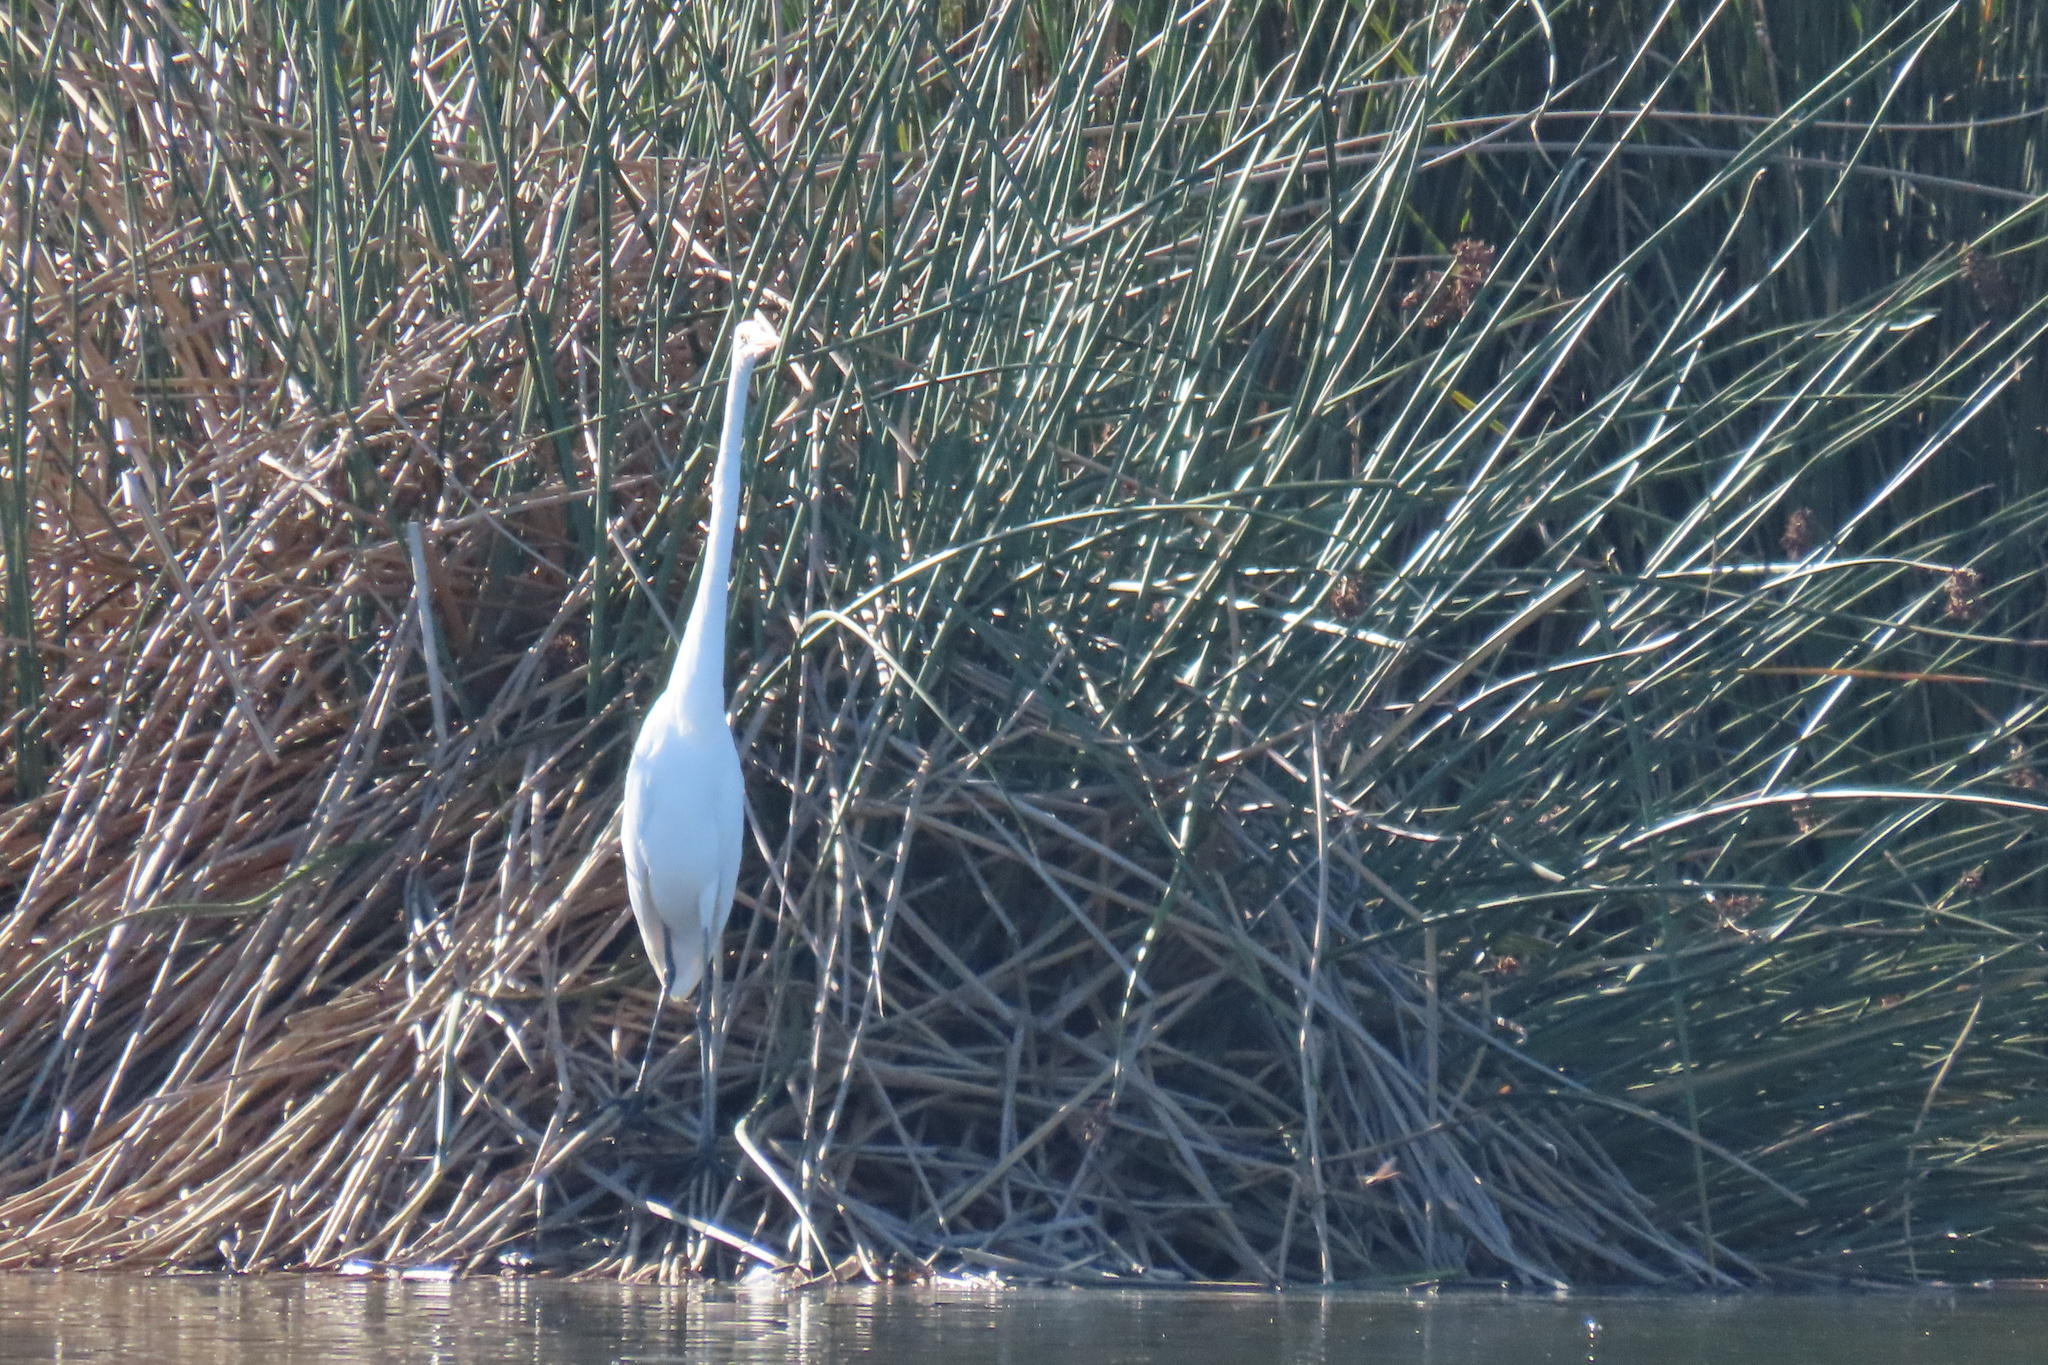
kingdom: Animalia
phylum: Chordata
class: Aves
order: Pelecaniformes
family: Ardeidae
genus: Ardea
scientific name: Ardea alba
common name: Great egret
